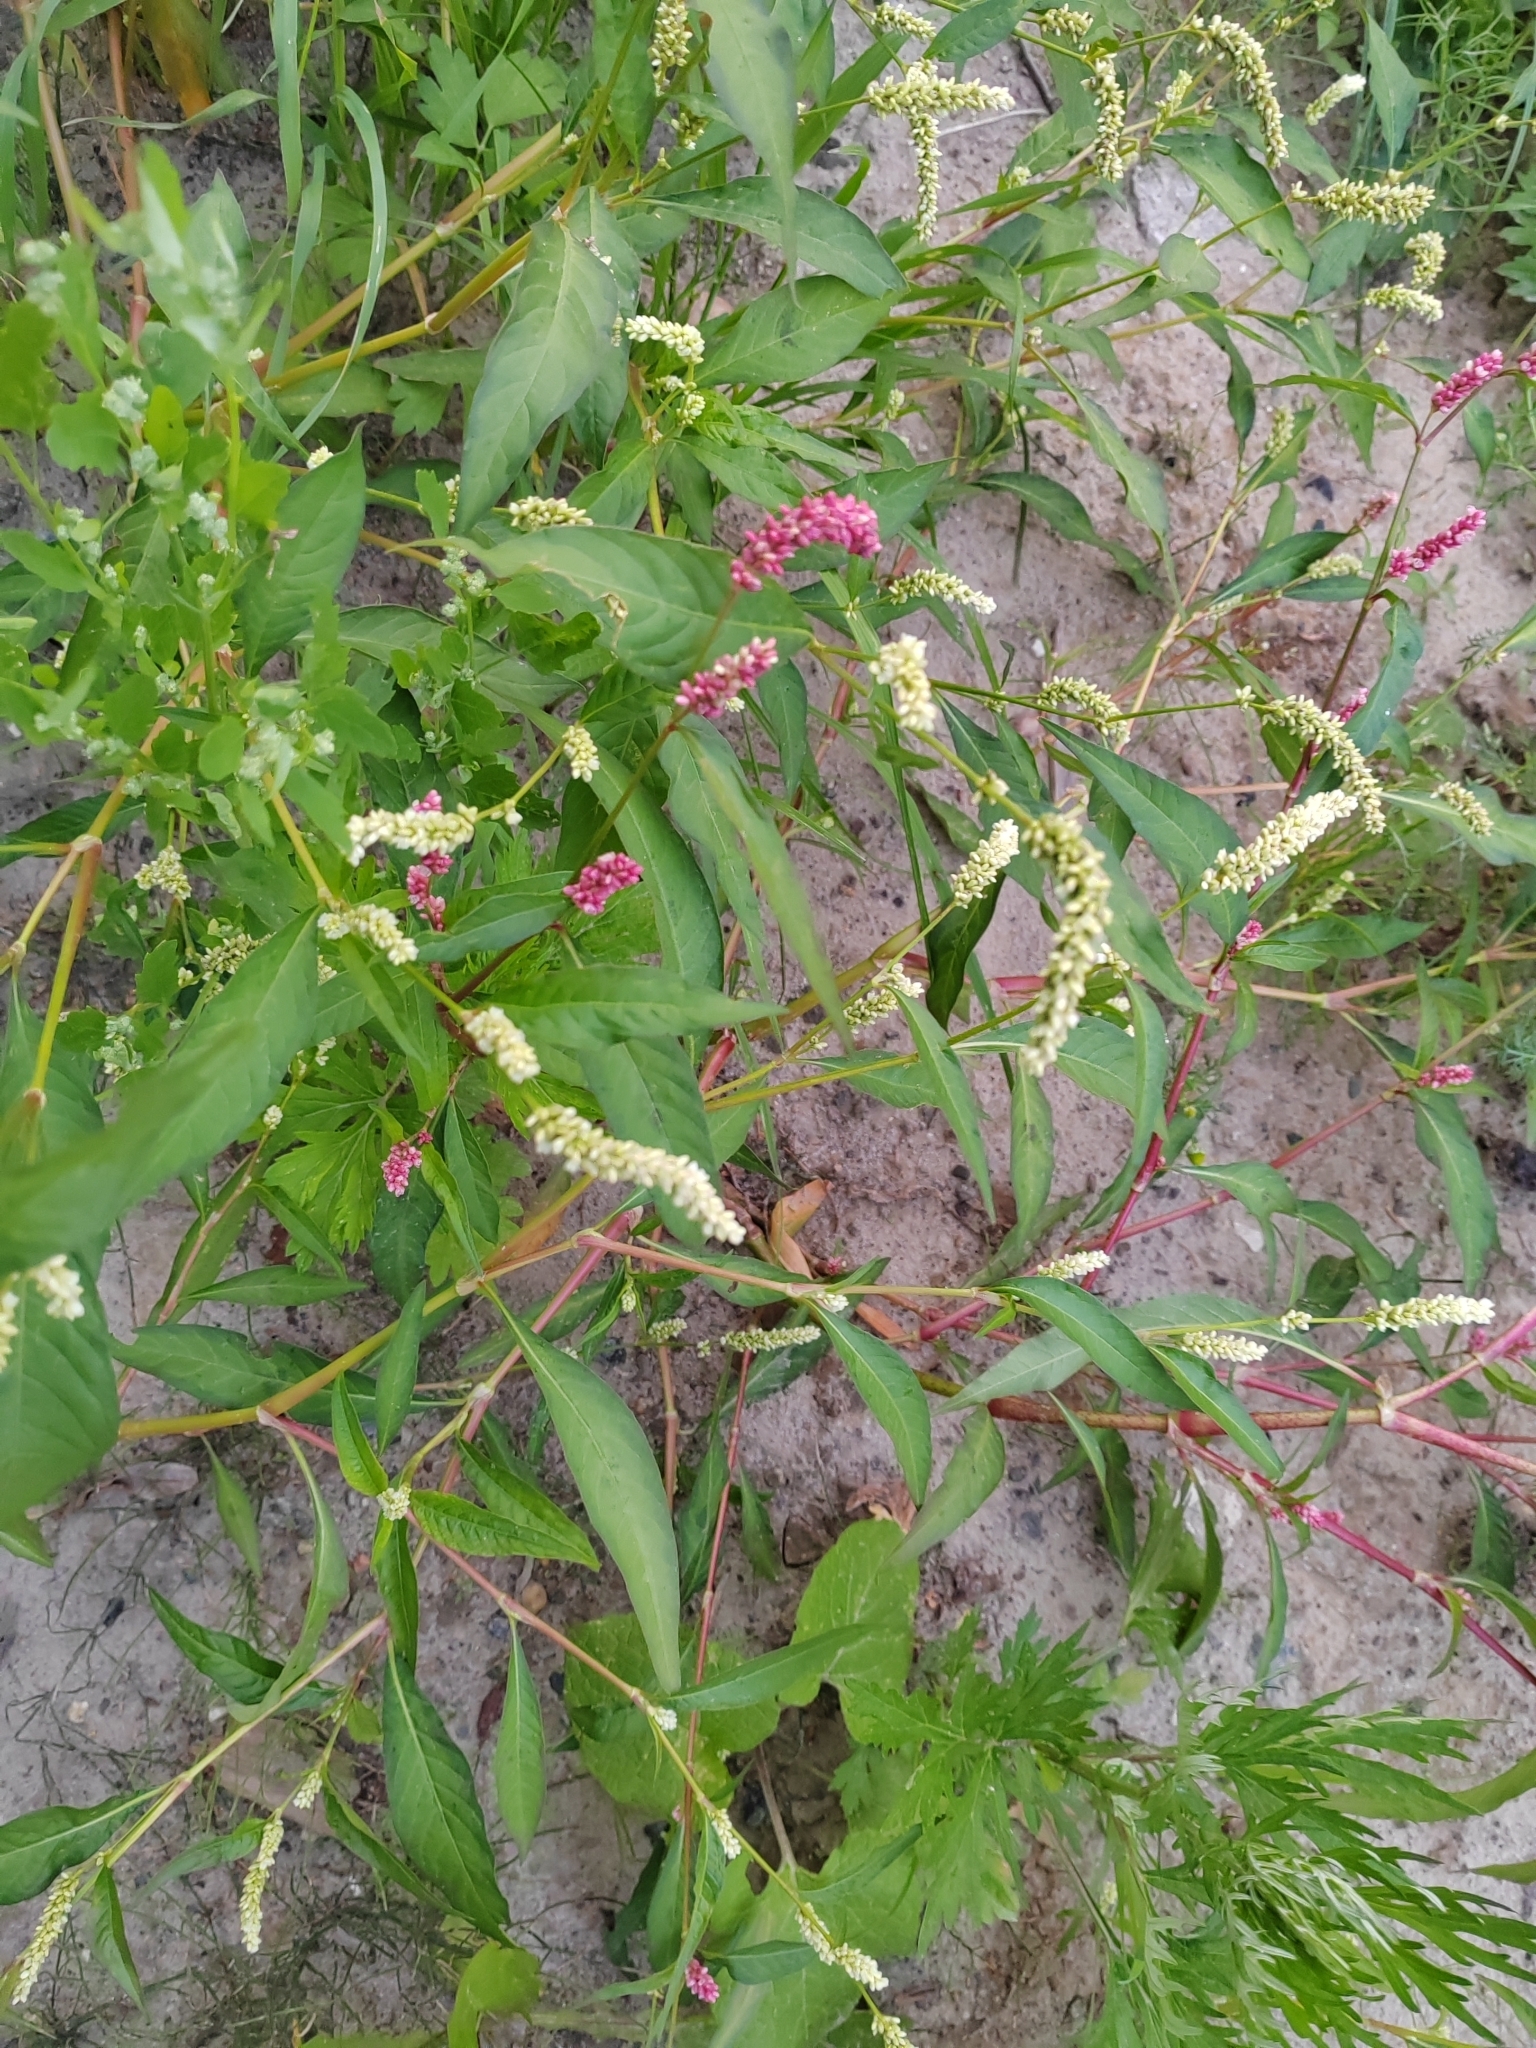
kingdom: Plantae
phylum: Tracheophyta
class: Magnoliopsida
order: Caryophyllales
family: Polygonaceae
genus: Persicaria
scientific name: Persicaria lapathifolia
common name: Curlytop knotweed
